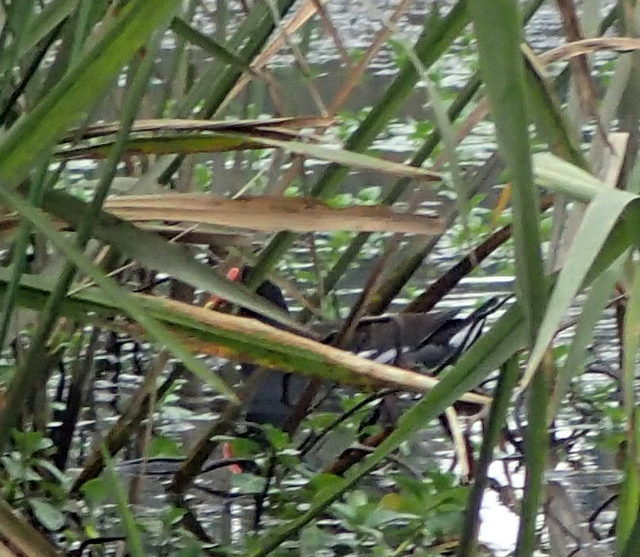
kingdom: Animalia
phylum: Chordata
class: Aves
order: Gruiformes
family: Rallidae
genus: Gallinula
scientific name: Gallinula chloropus
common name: Common moorhen
